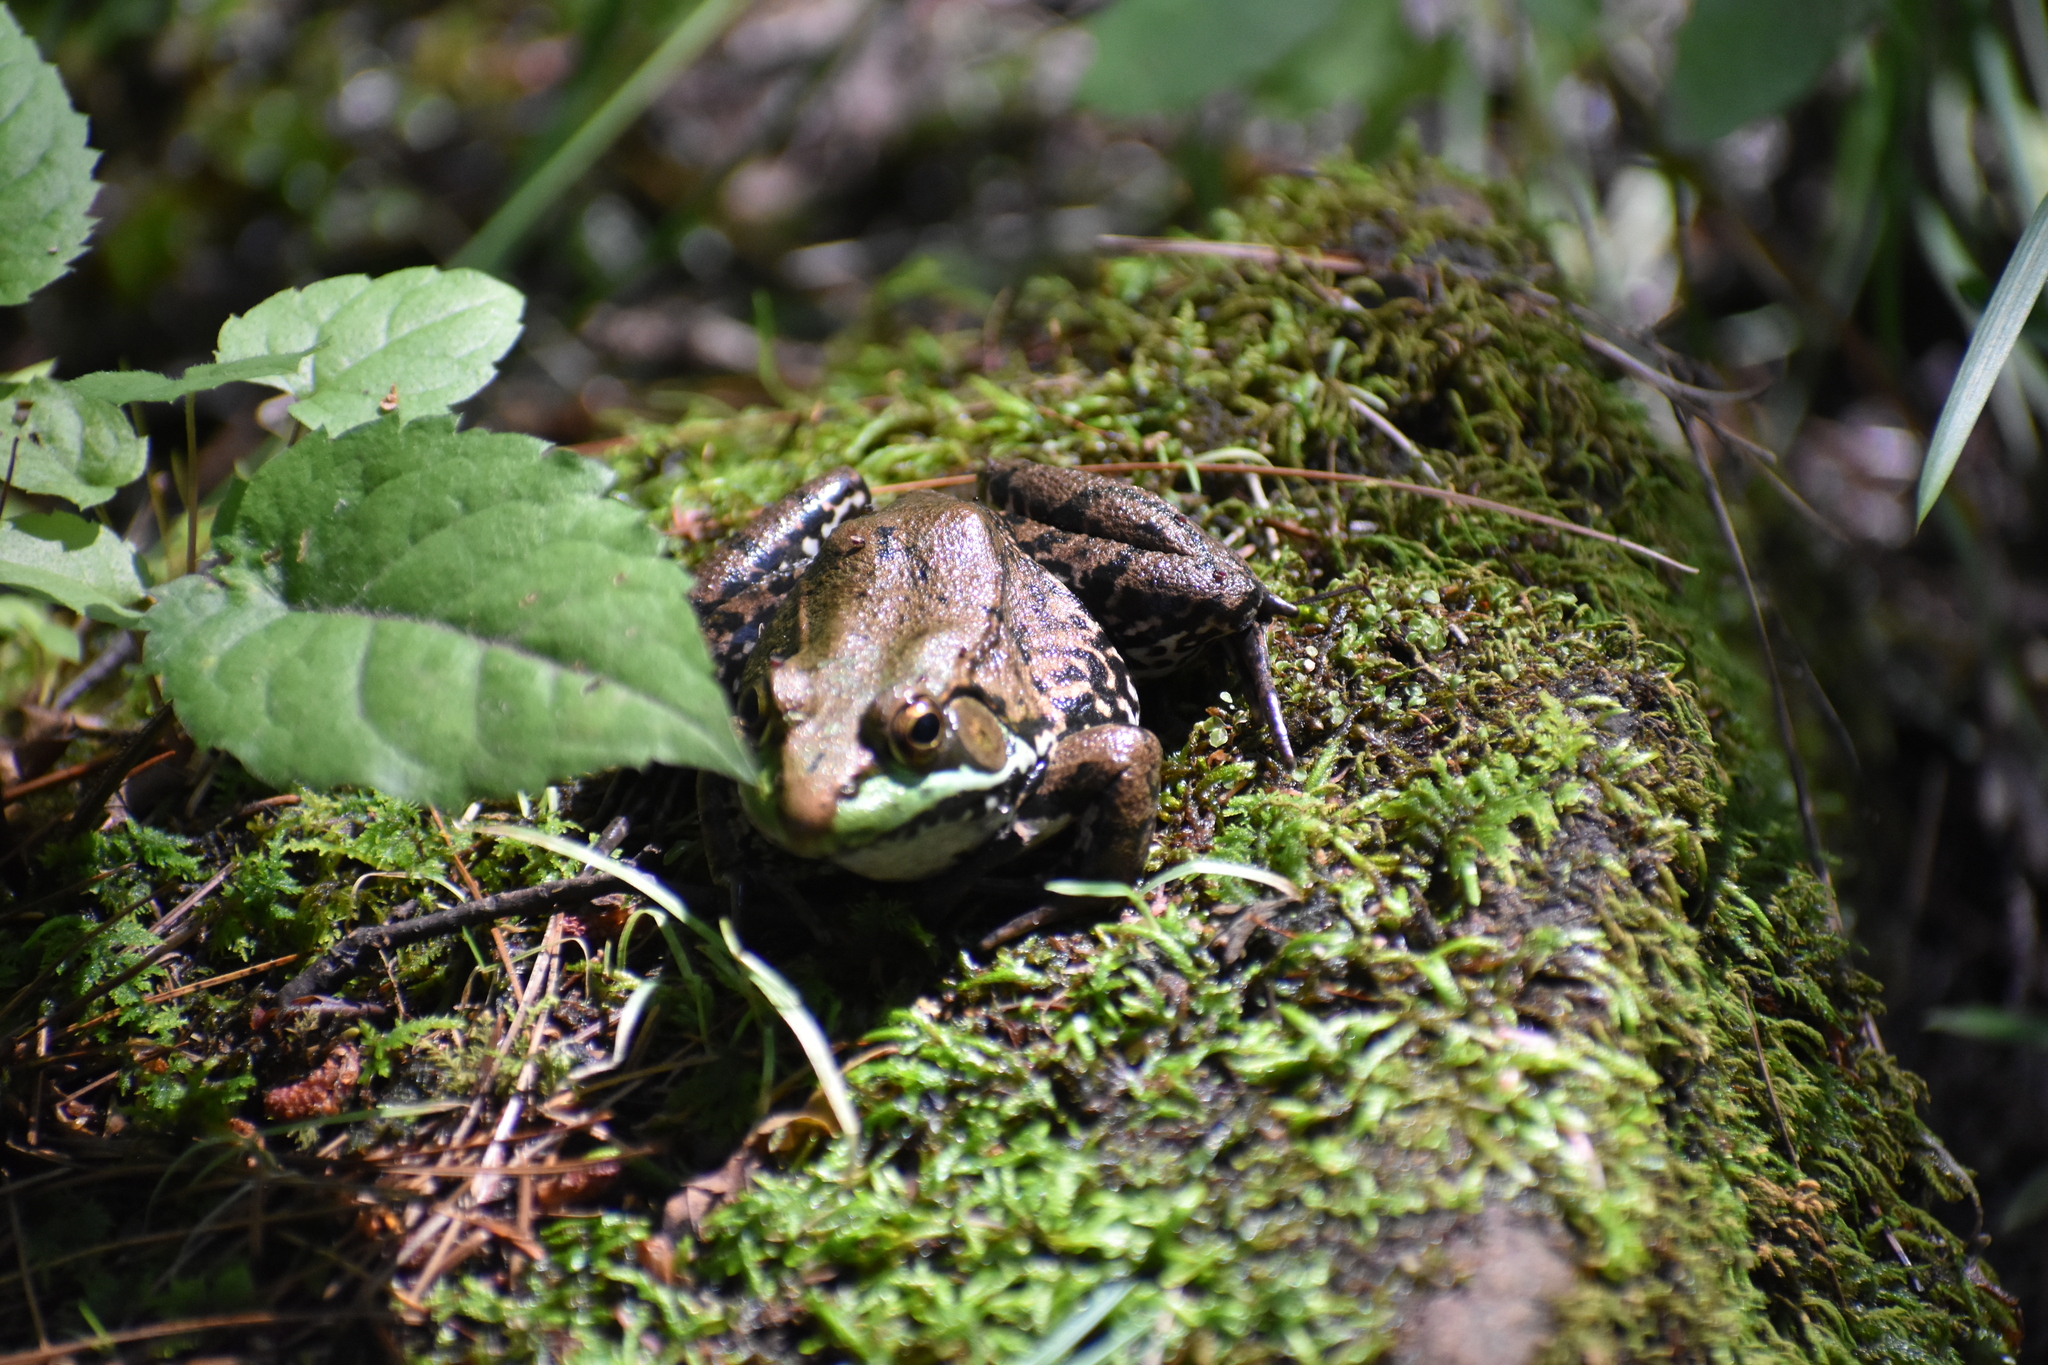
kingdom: Animalia
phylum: Chordata
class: Amphibia
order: Anura
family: Ranidae
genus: Lithobates
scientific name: Lithobates clamitans
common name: Green frog
